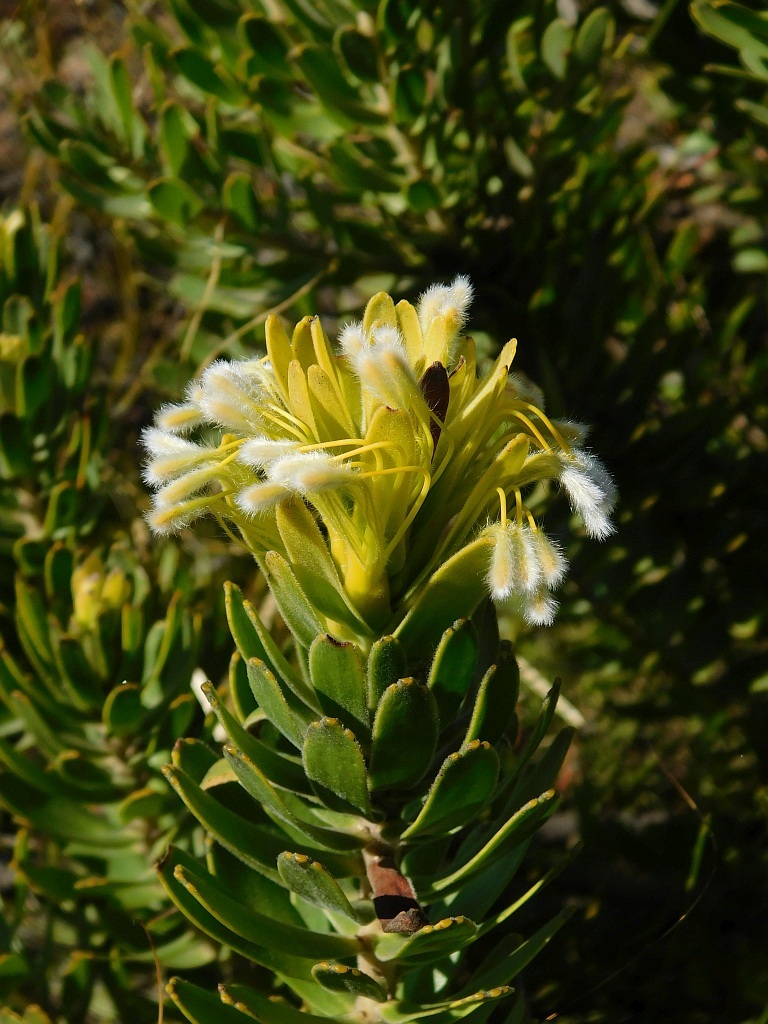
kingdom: Plantae
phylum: Tracheophyta
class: Magnoliopsida
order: Proteales
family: Proteaceae
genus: Mimetes
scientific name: Mimetes cucullatus
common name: Common pagoda
